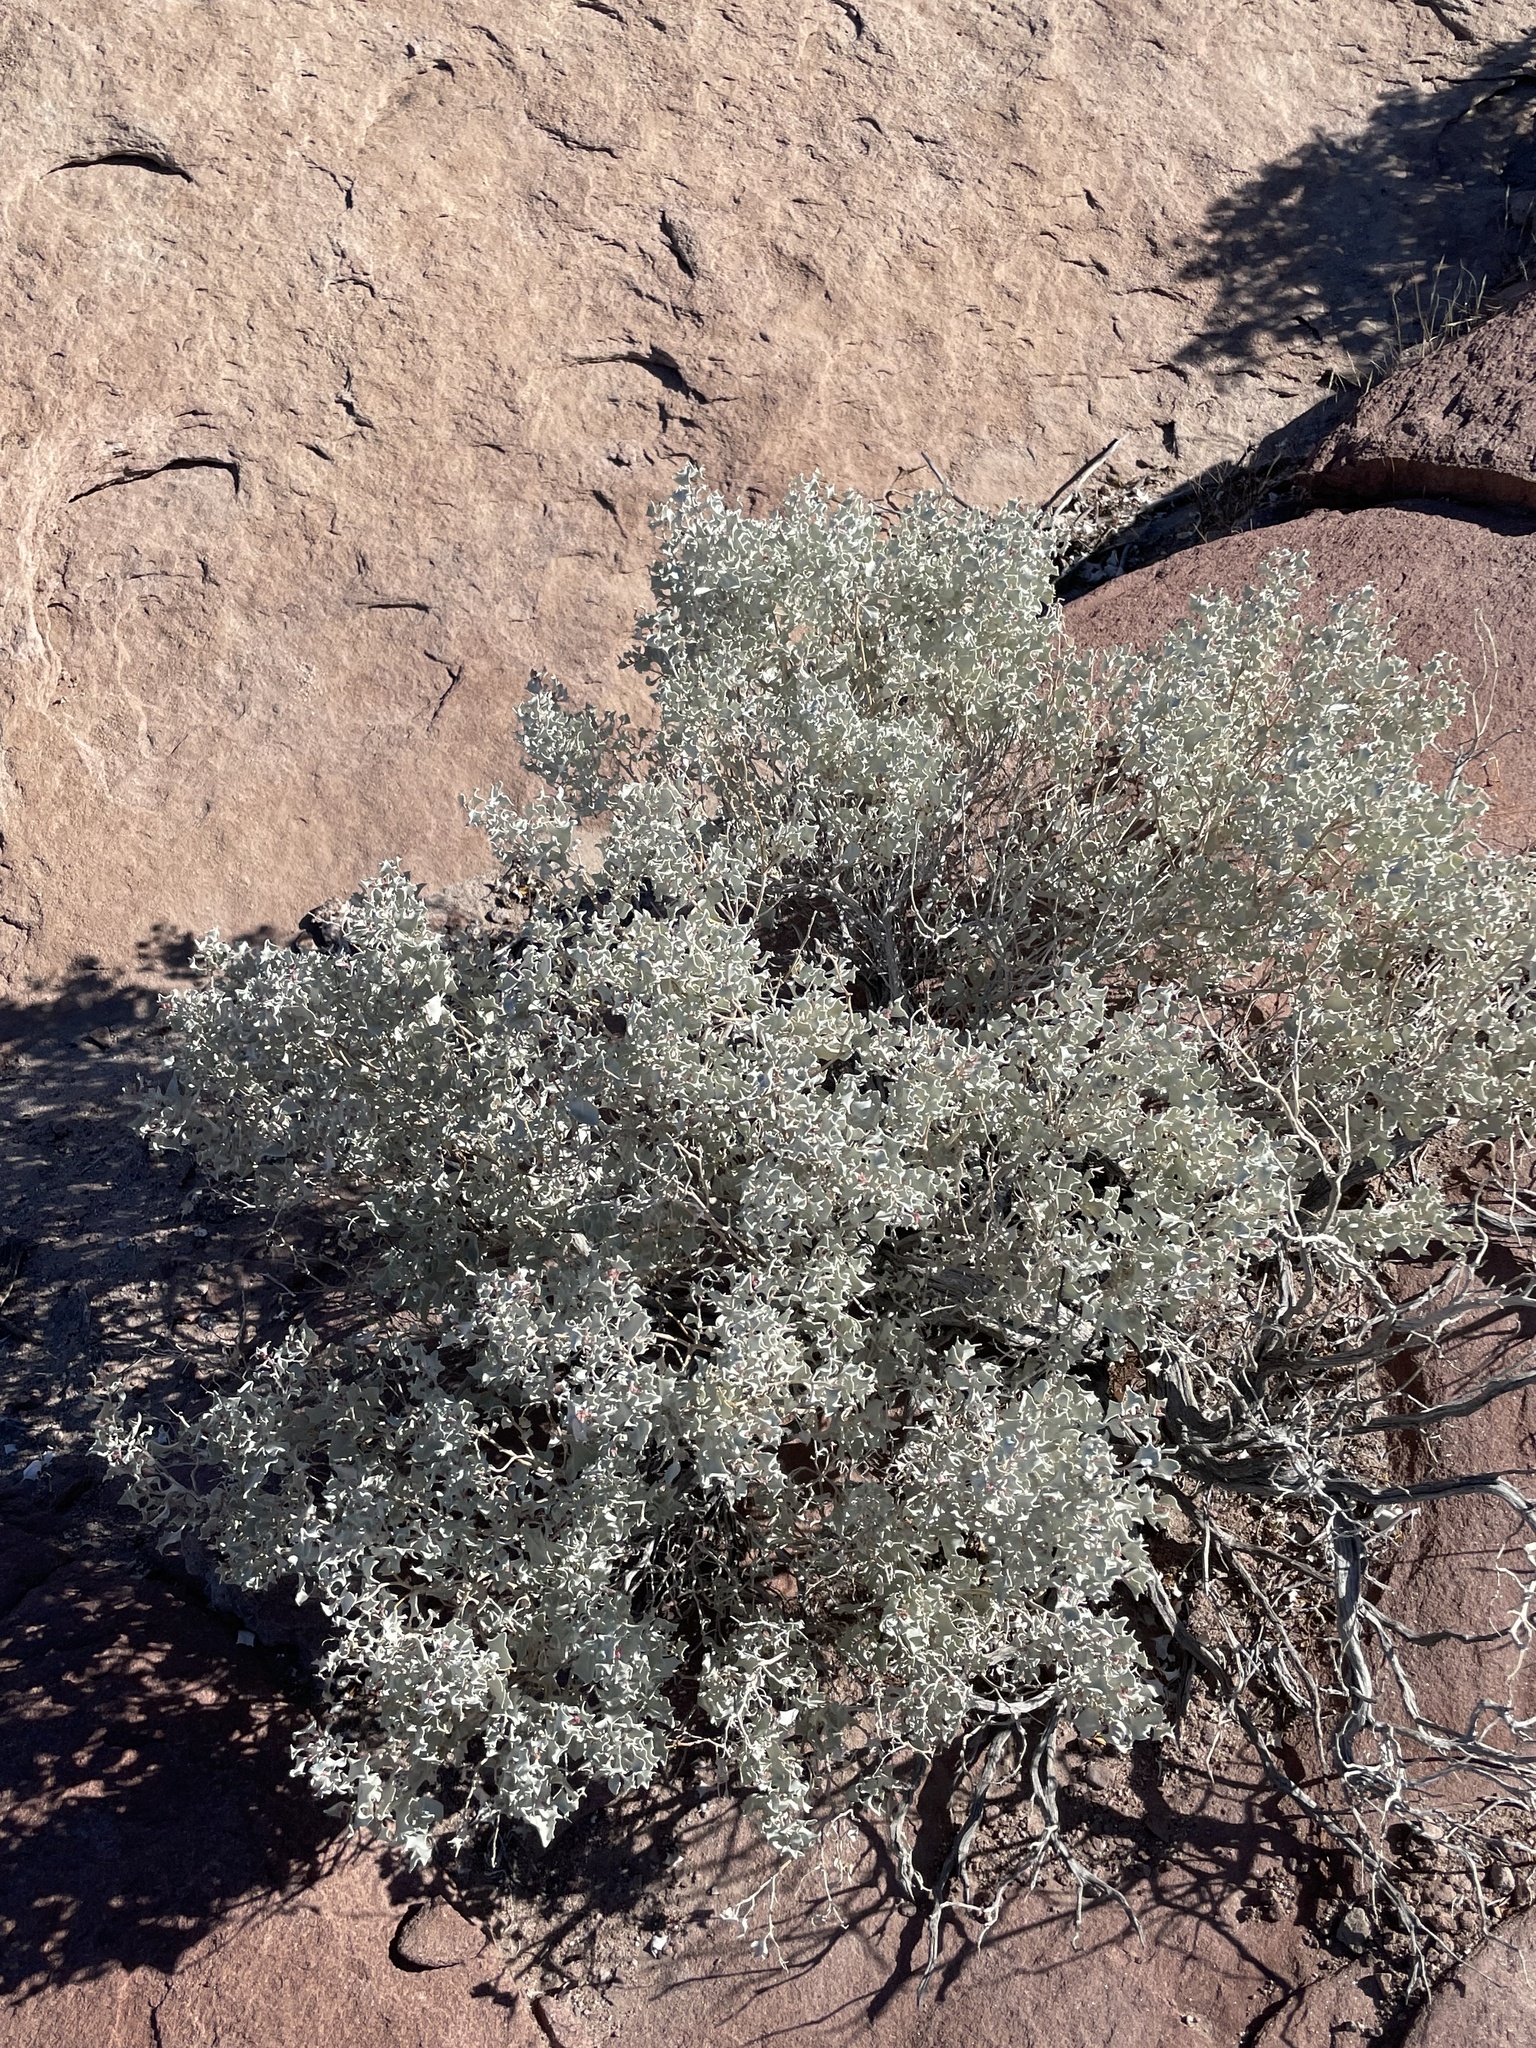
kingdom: Plantae
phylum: Tracheophyta
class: Magnoliopsida
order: Caryophyllales
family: Amaranthaceae
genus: Atriplex
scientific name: Atriplex hymenelytra
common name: Desert-holly
